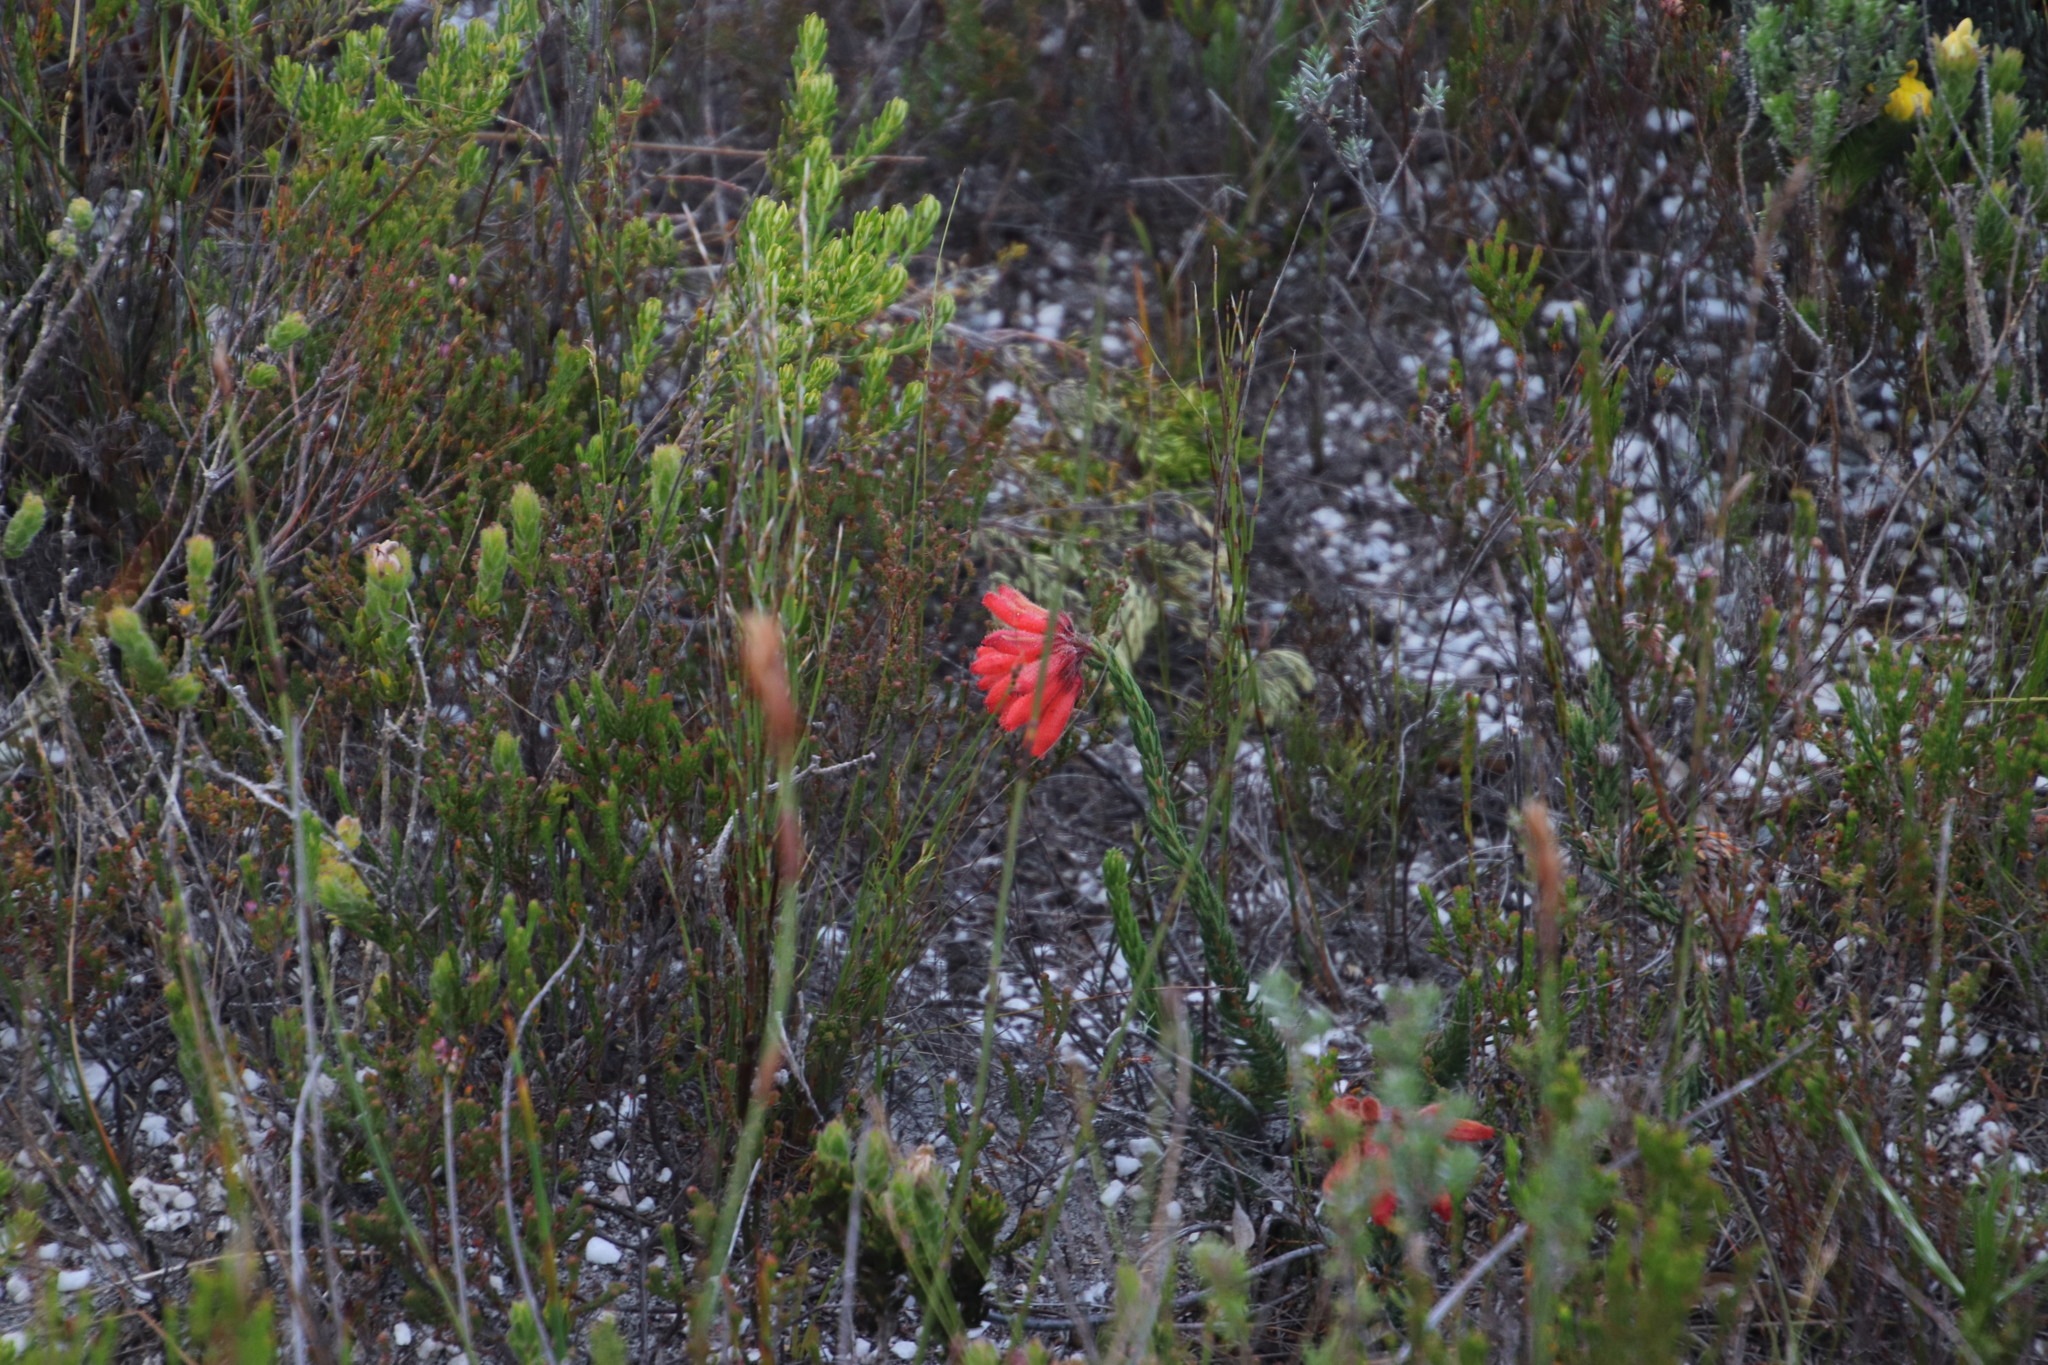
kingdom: Plantae
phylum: Tracheophyta
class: Magnoliopsida
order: Ericales
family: Ericaceae
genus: Erica
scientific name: Erica cerinthoides
